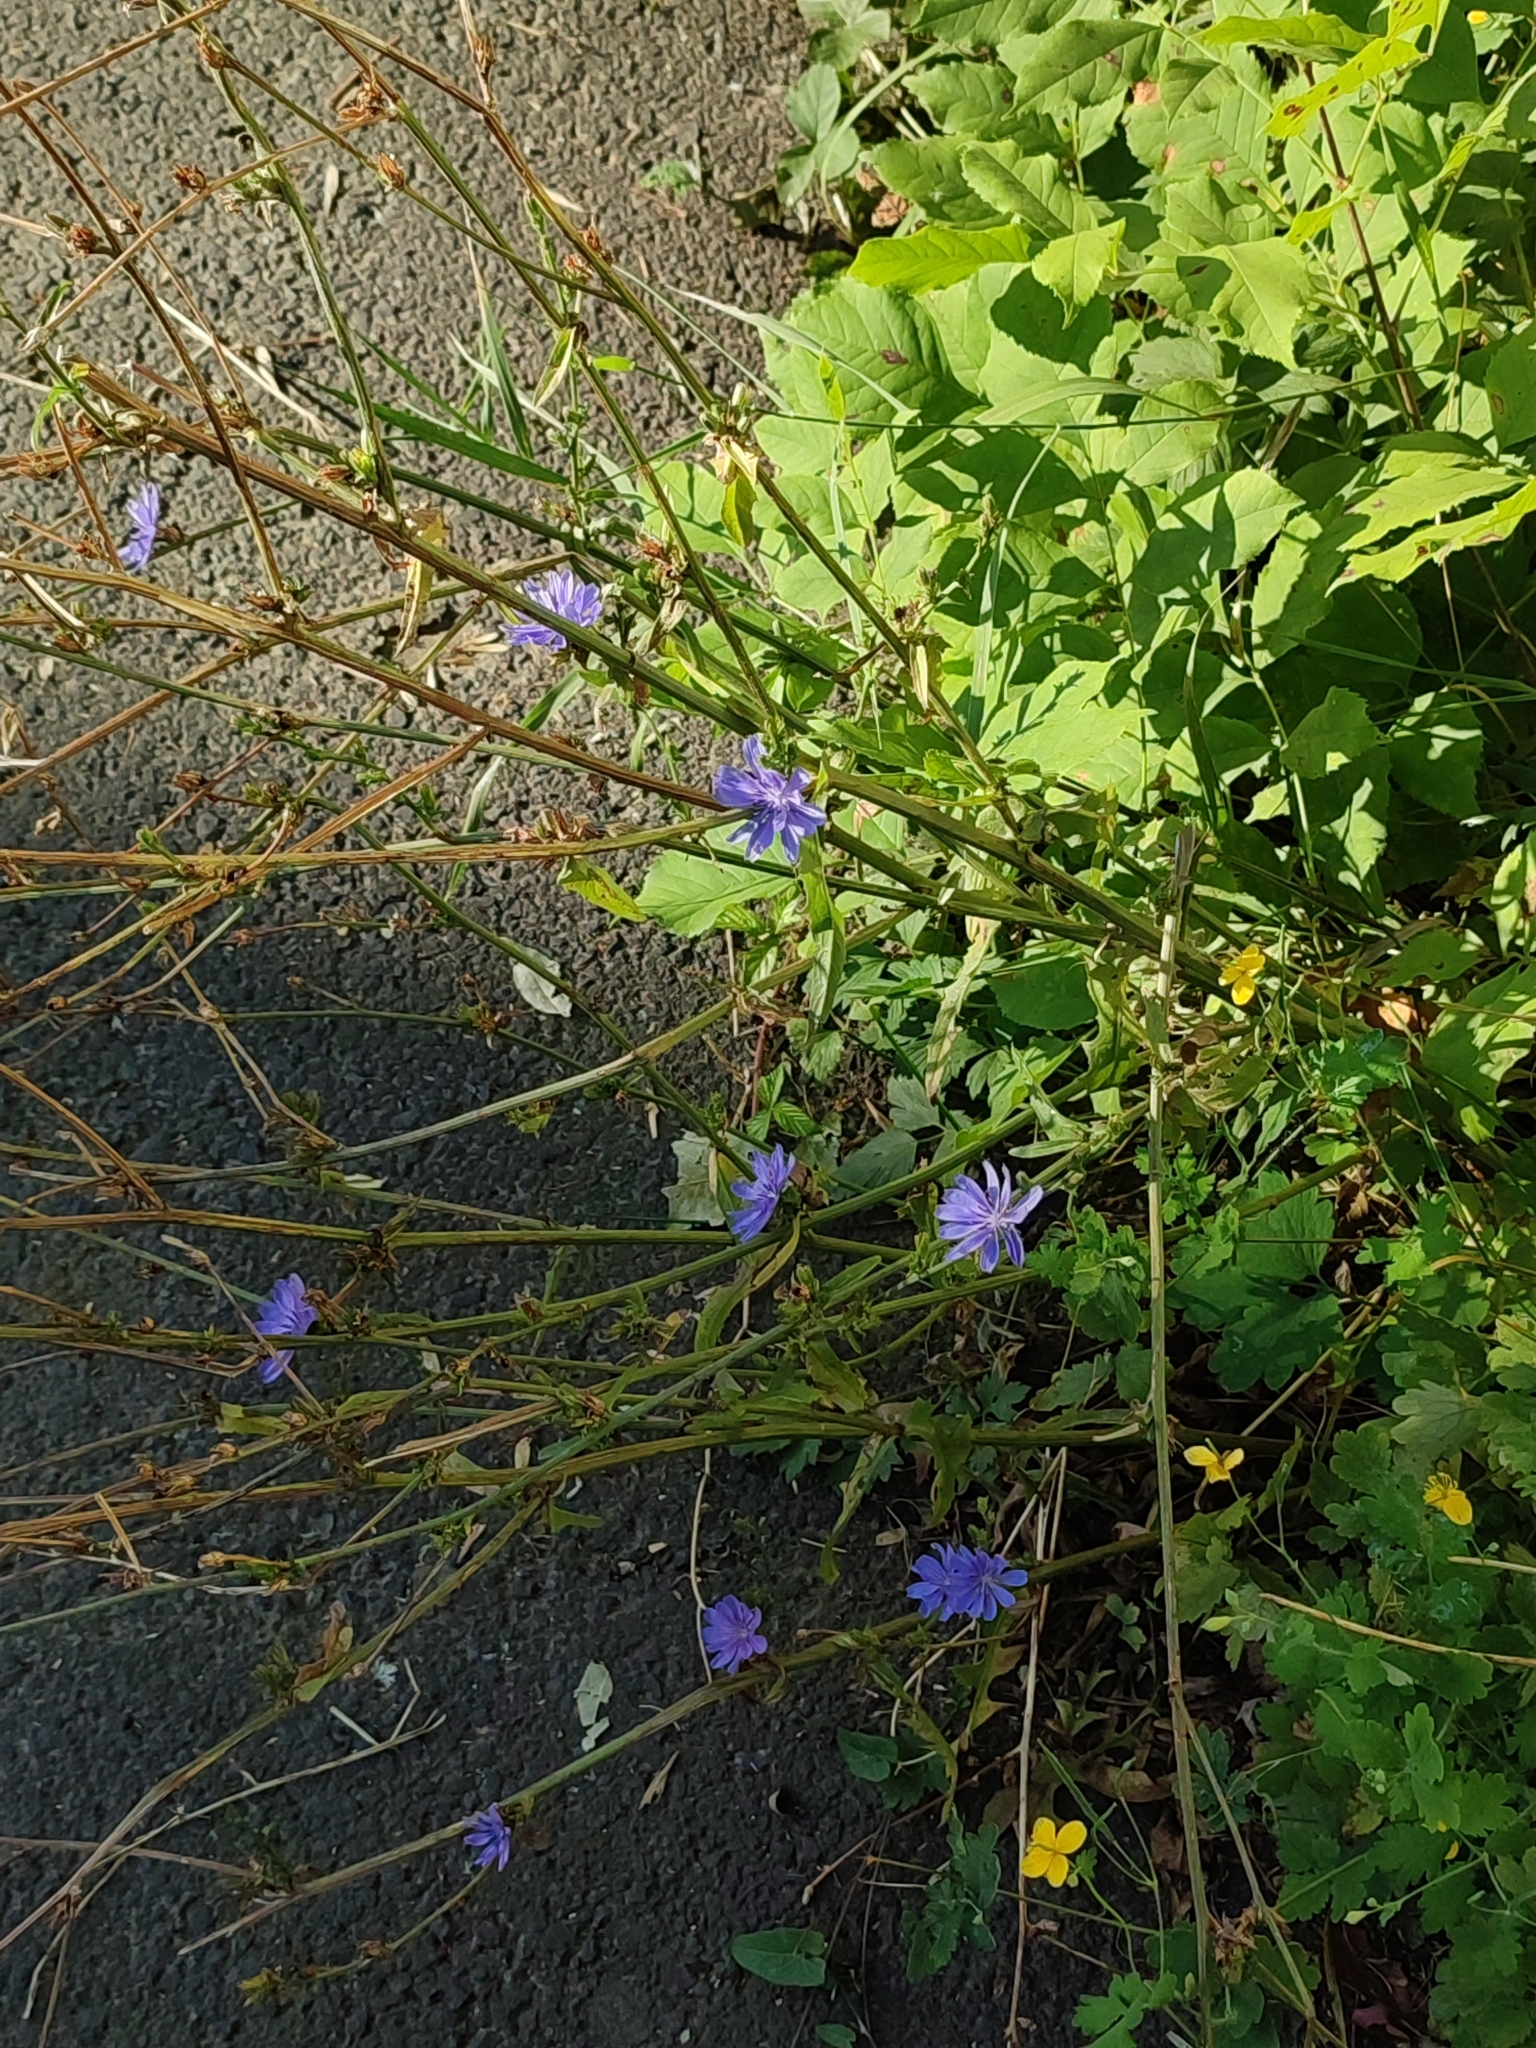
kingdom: Plantae
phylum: Tracheophyta
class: Magnoliopsida
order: Asterales
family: Asteraceae
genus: Cichorium
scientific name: Cichorium intybus
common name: Chicory
